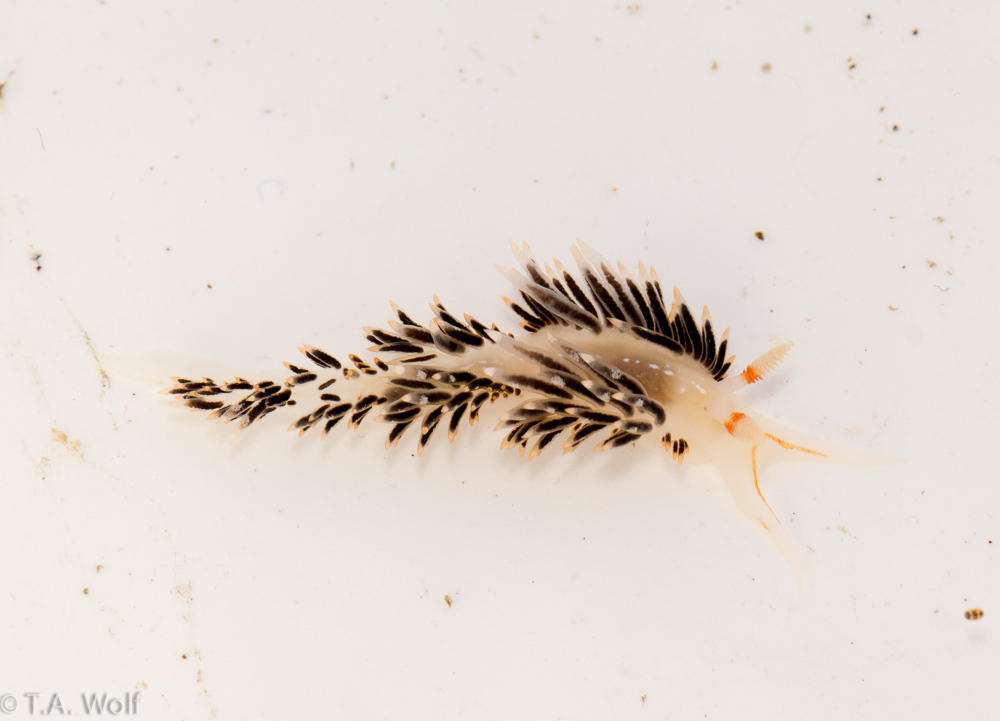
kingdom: Animalia
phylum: Mollusca
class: Gastropoda
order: Nudibranchia
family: Facelinidae
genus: Phidiana
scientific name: Phidiana hiltoni
